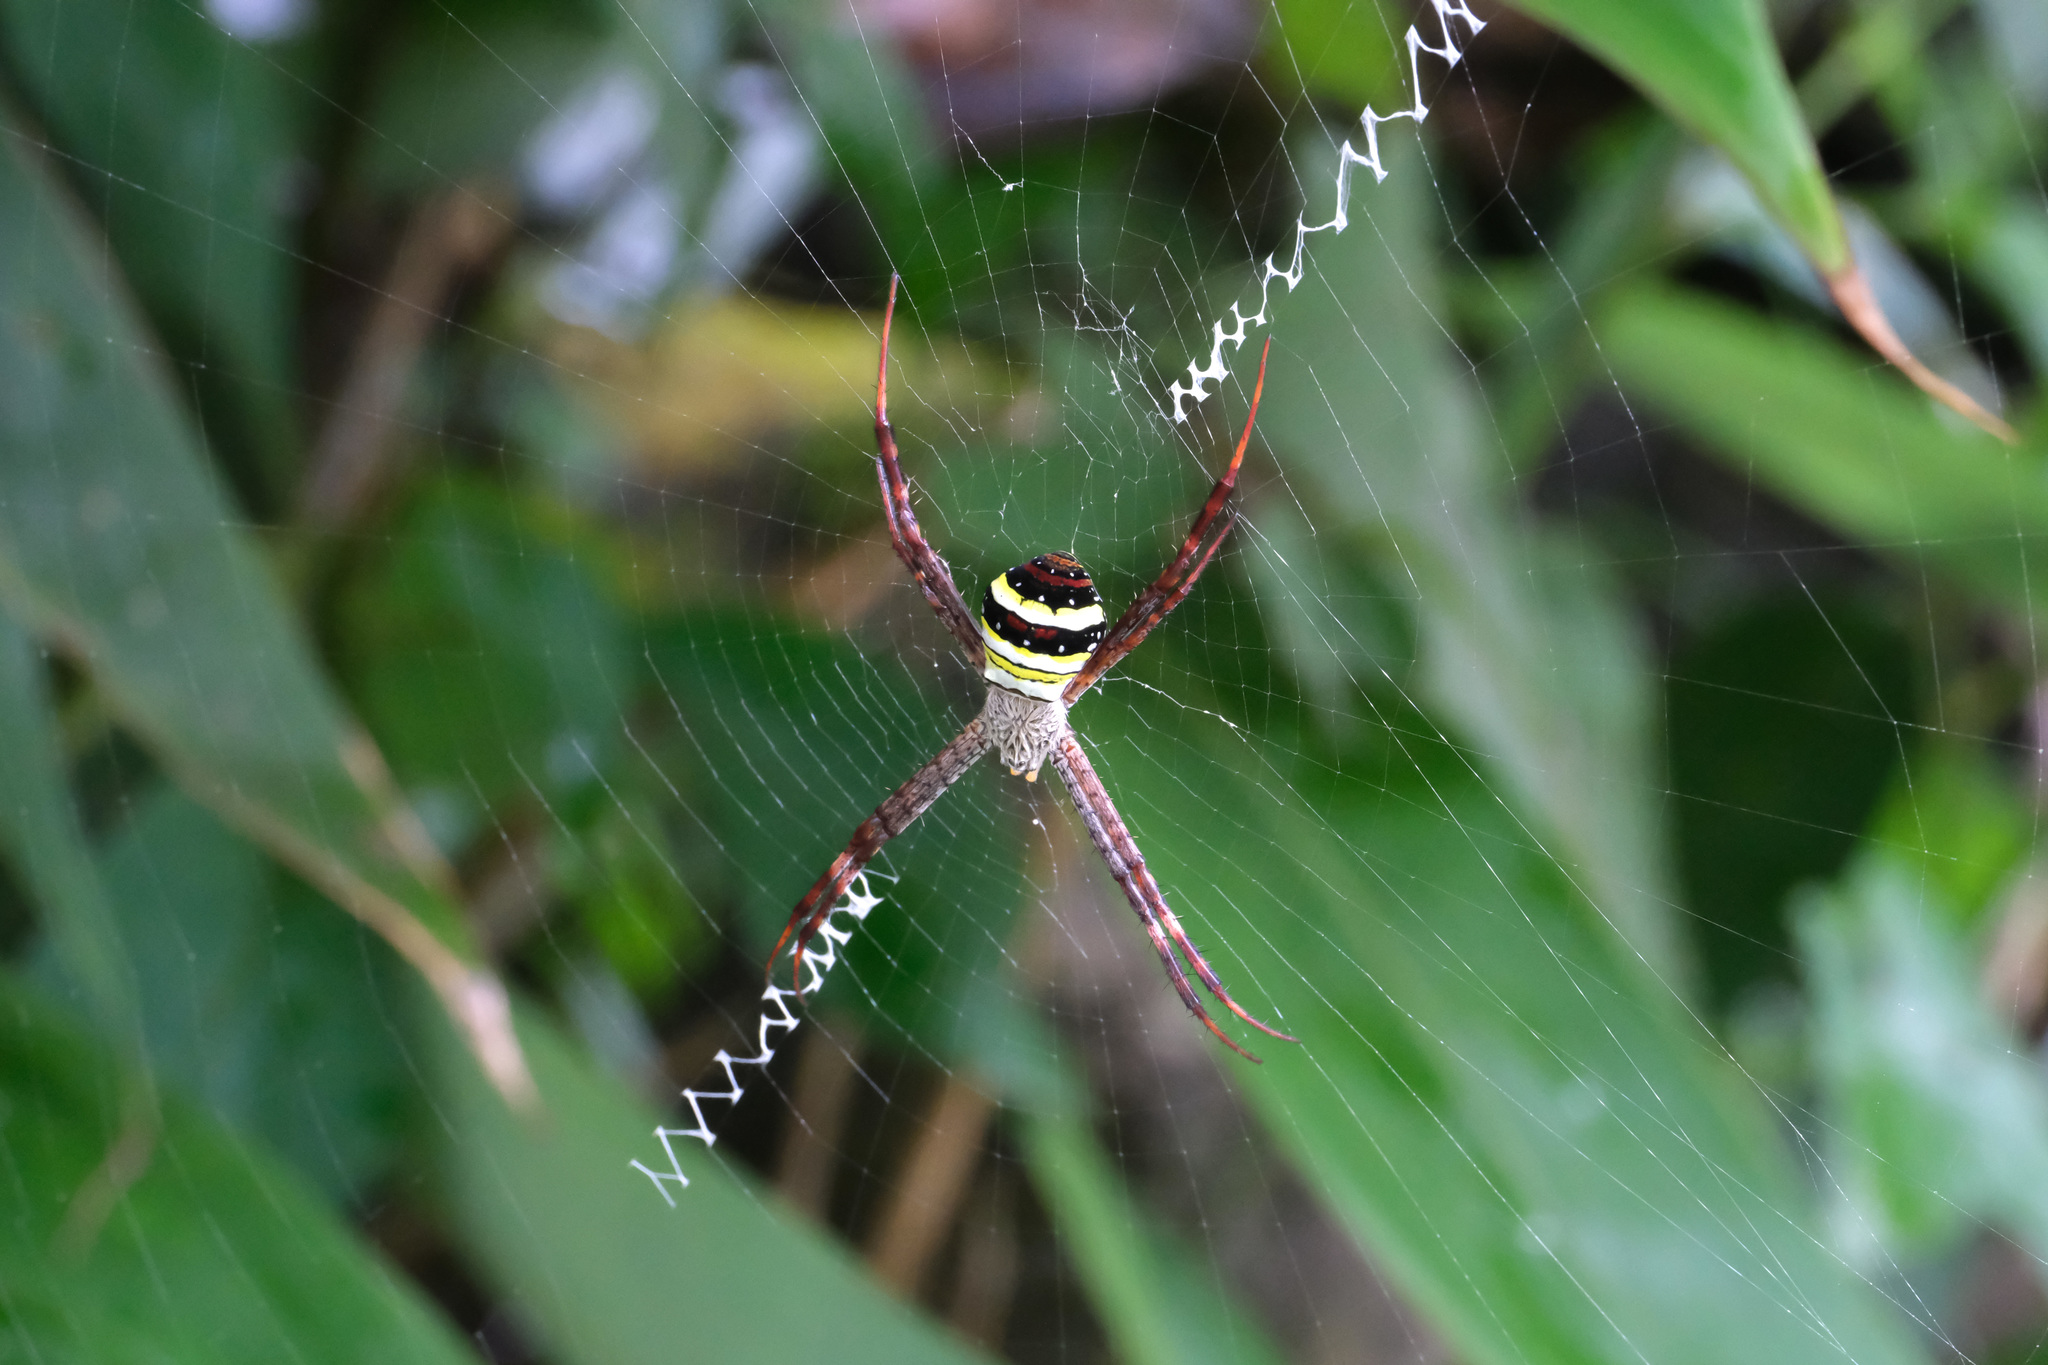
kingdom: Animalia
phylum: Arthropoda
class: Arachnida
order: Araneae
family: Araneidae
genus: Argiope
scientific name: Argiope minuta
